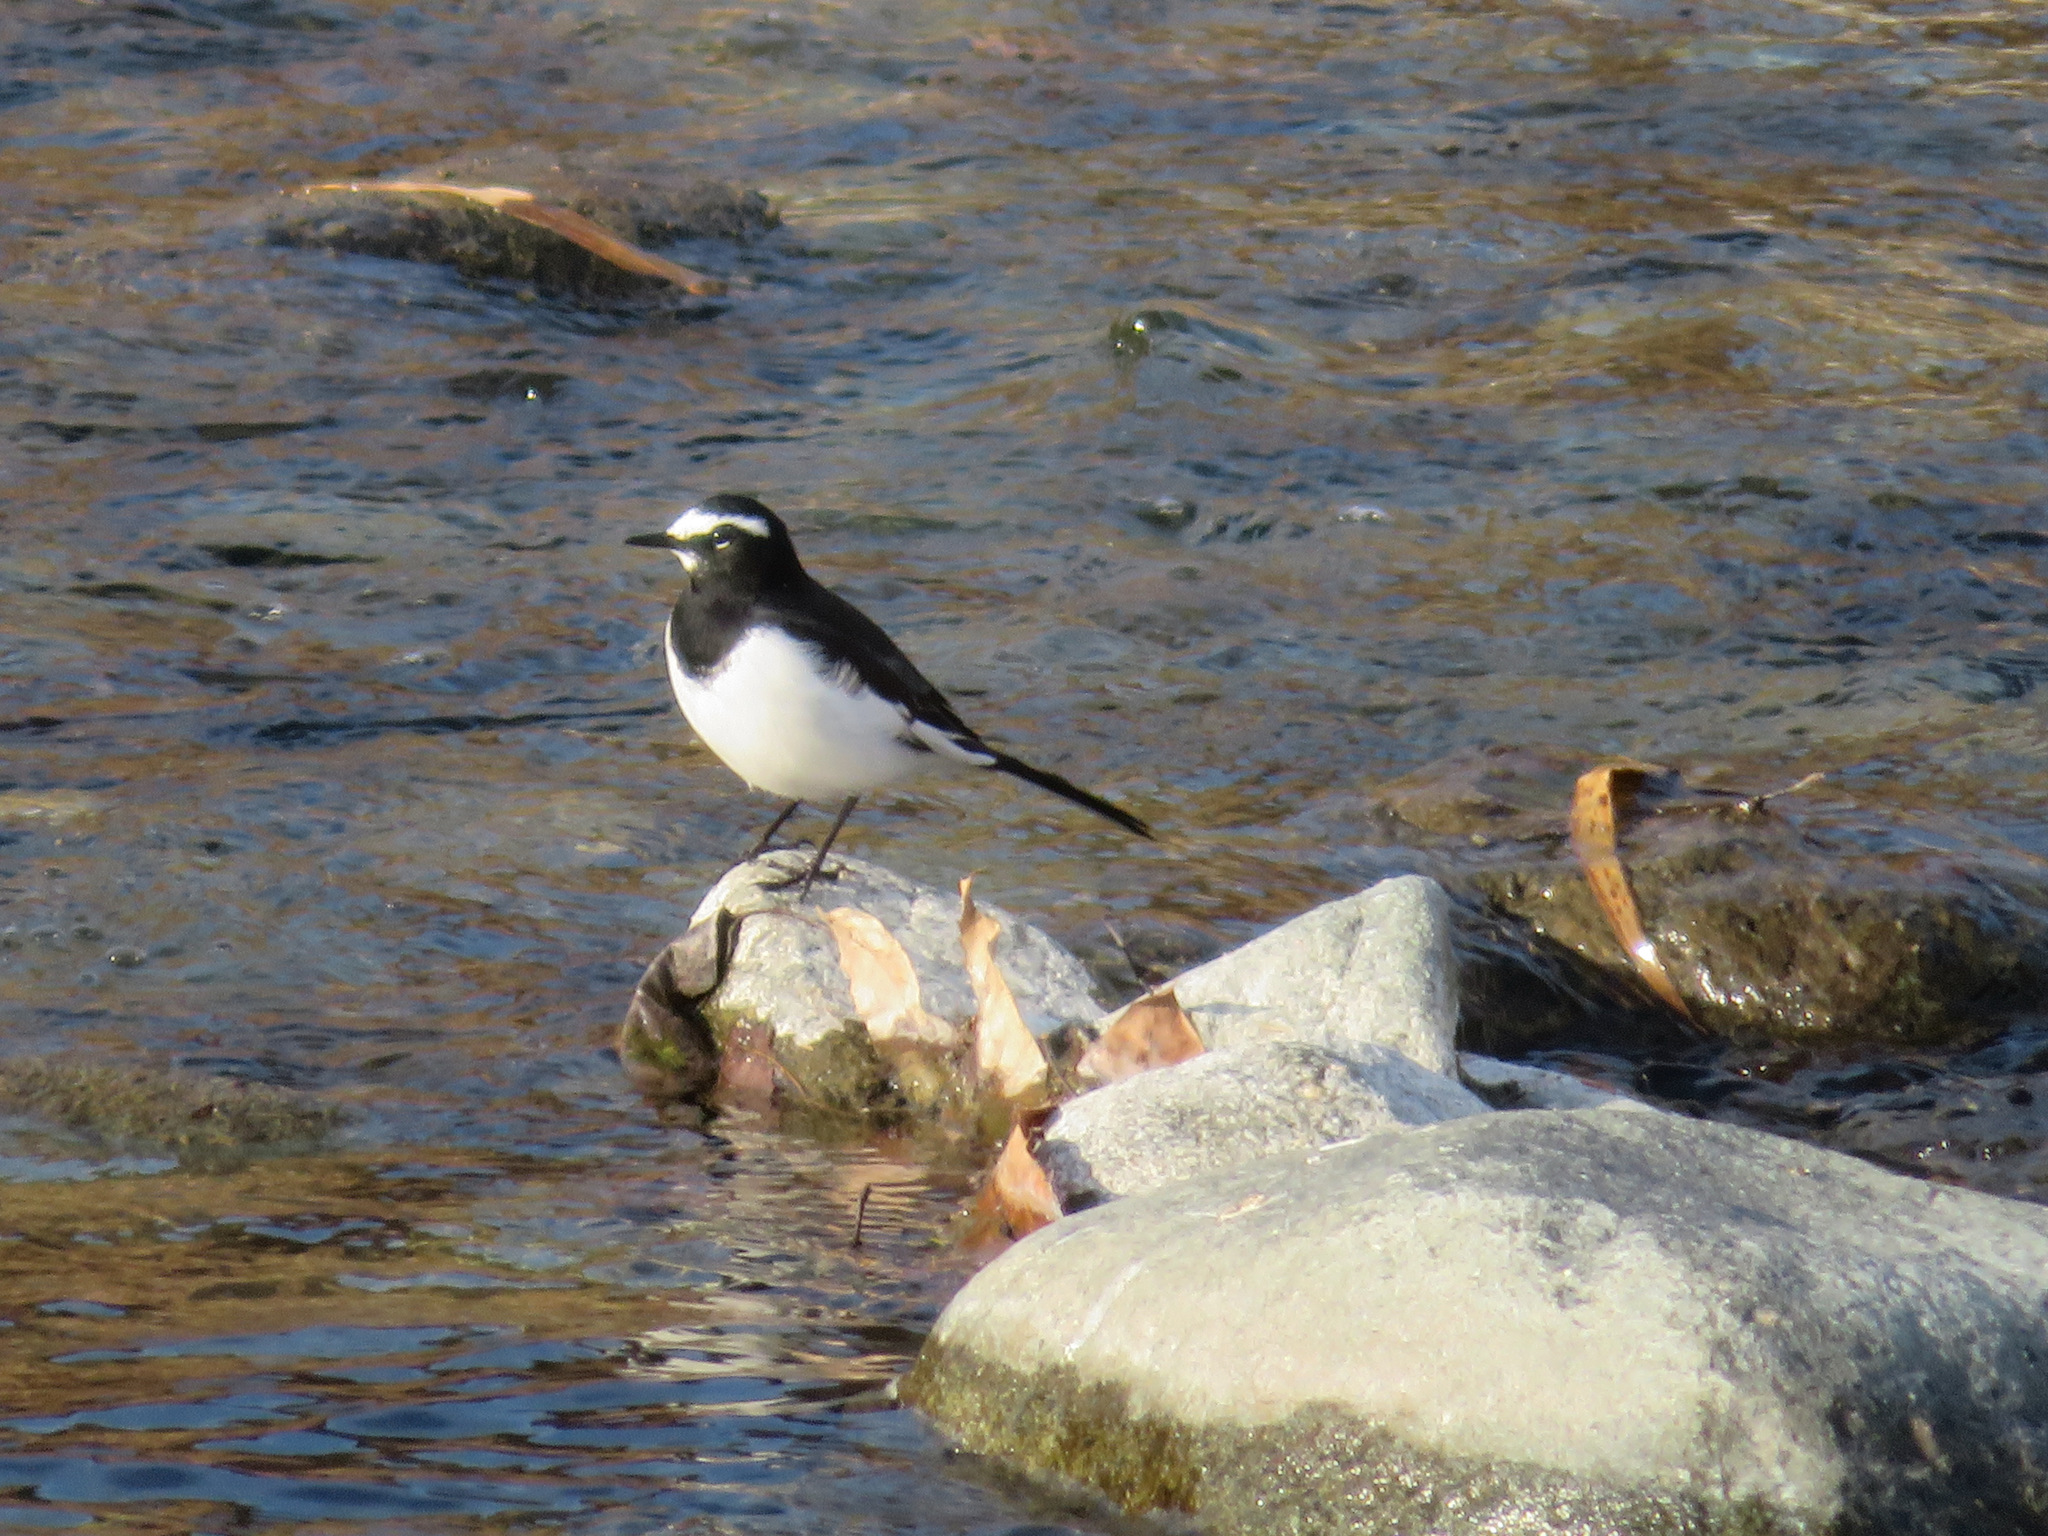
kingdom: Animalia
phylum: Chordata
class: Aves
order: Passeriformes
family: Motacillidae
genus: Motacilla
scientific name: Motacilla grandis
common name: Japanese wagtail
